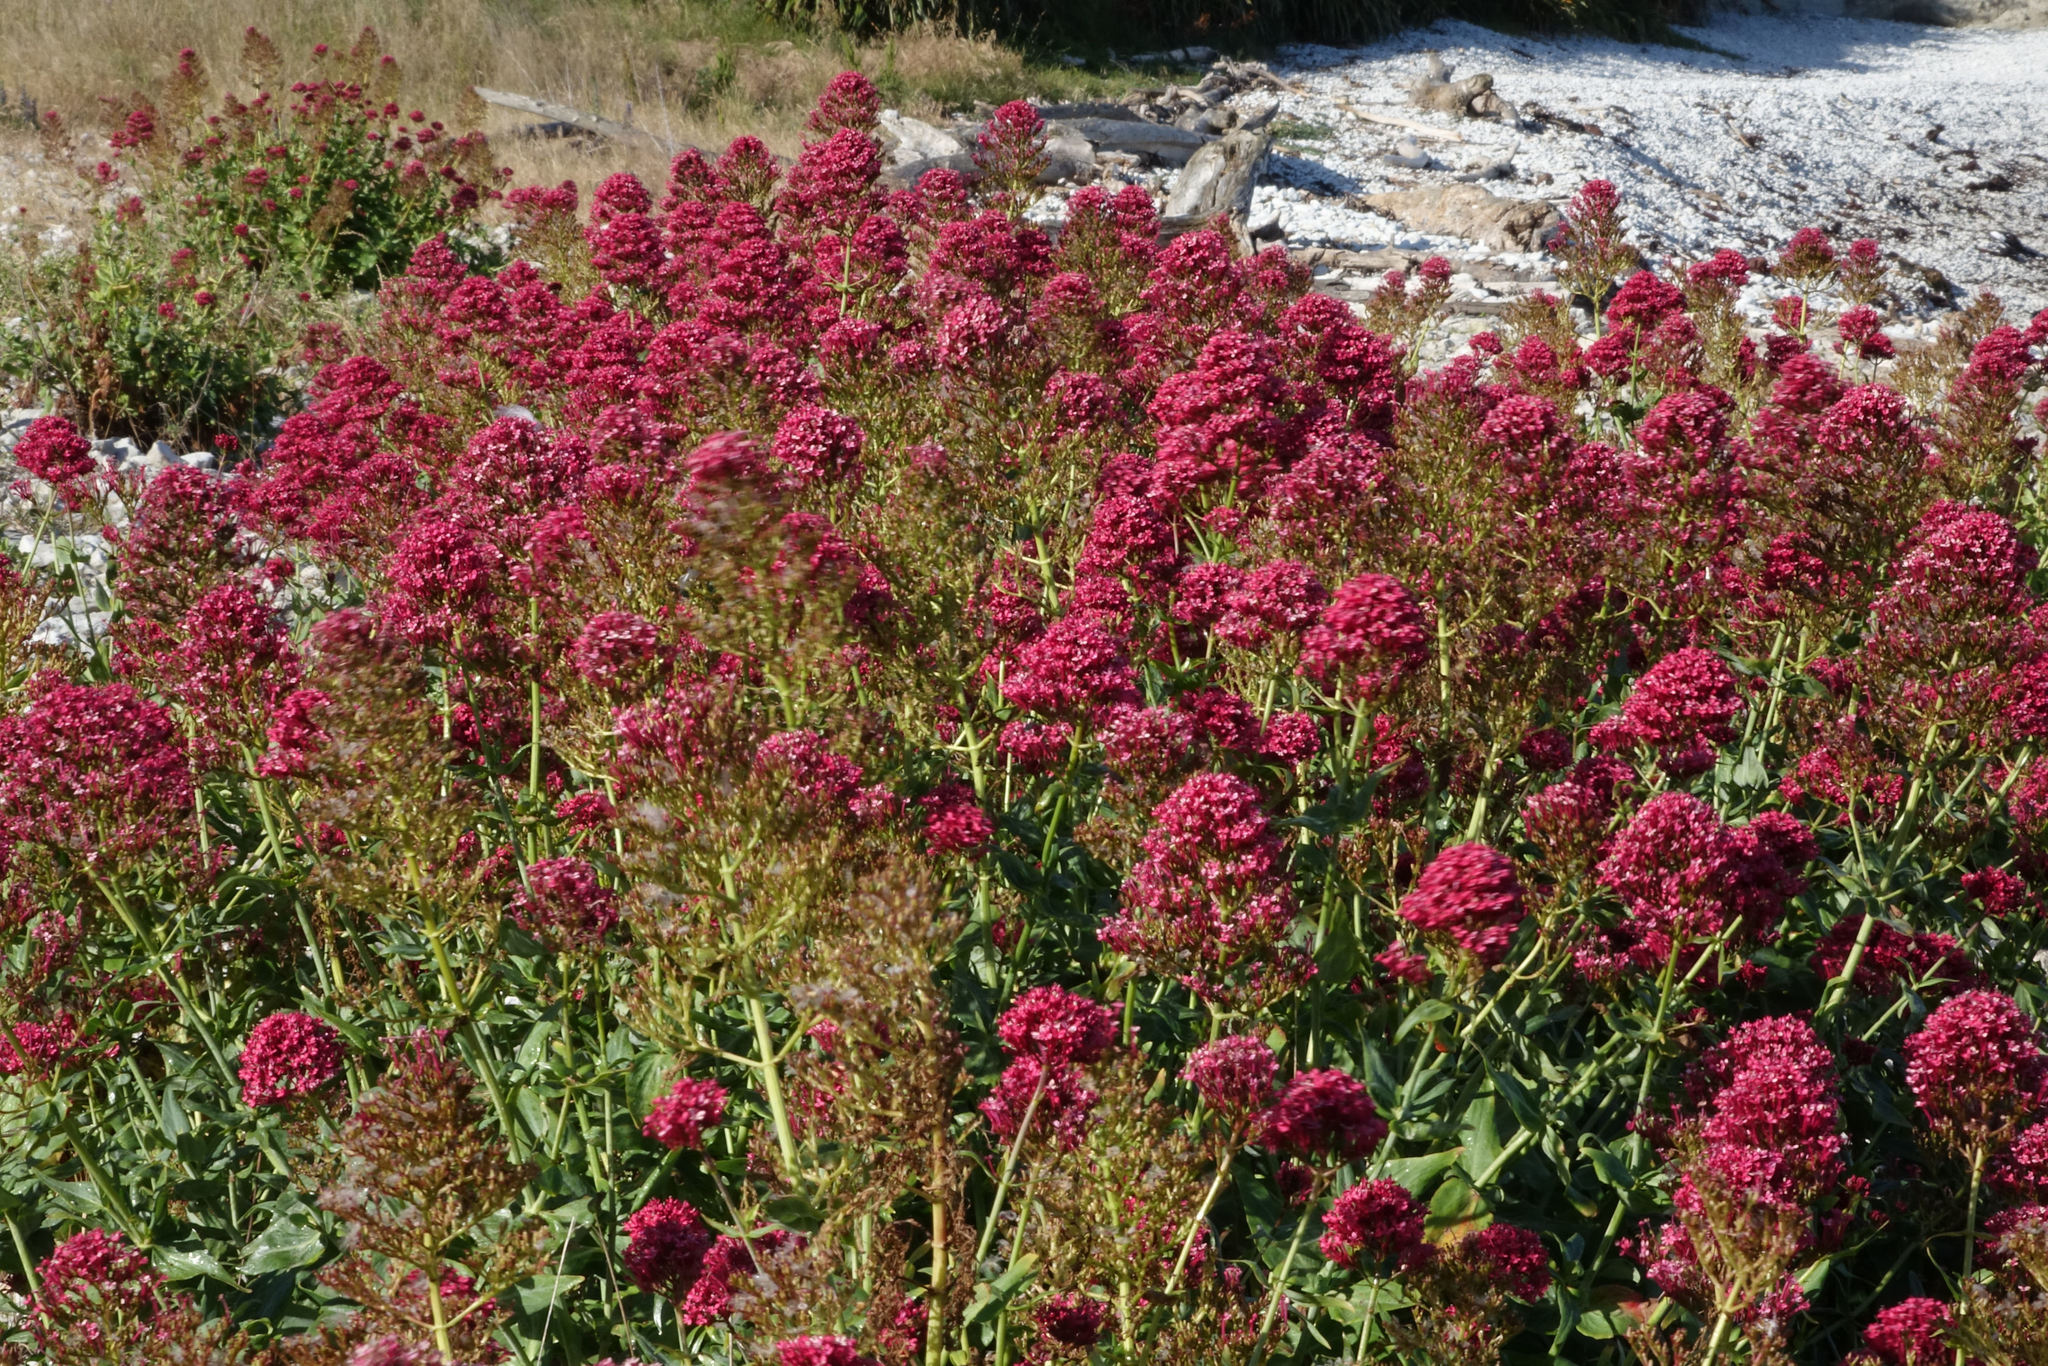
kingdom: Plantae
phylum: Tracheophyta
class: Magnoliopsida
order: Dipsacales
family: Caprifoliaceae
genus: Centranthus
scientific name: Centranthus ruber
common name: Red valerian
